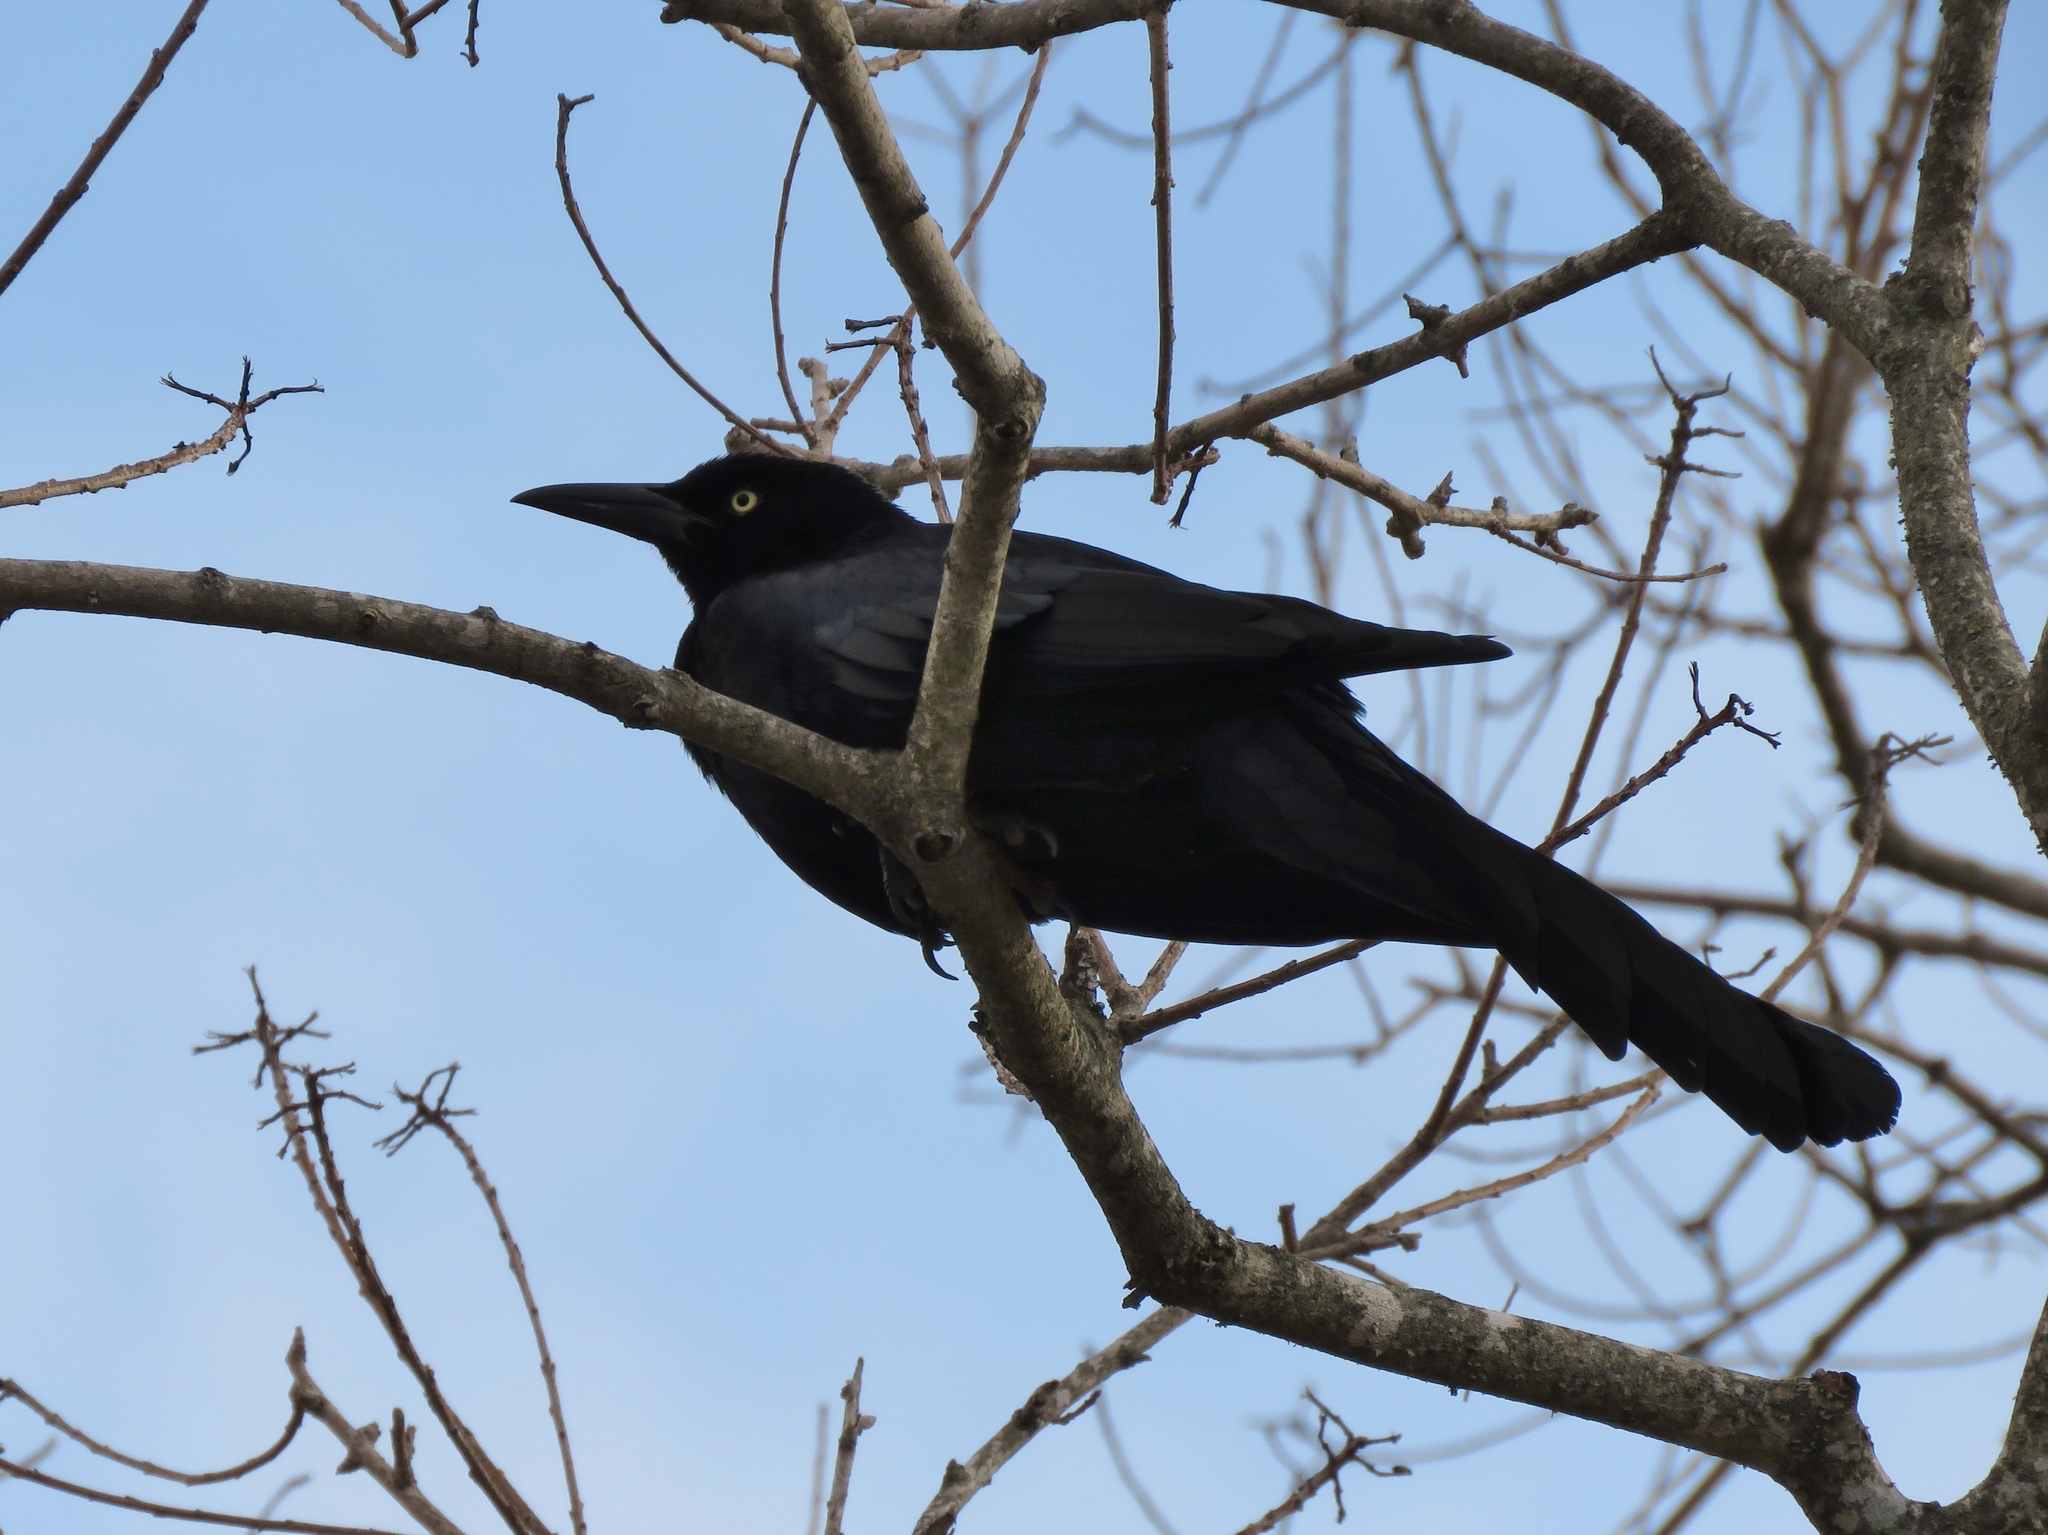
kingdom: Animalia
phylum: Chordata
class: Aves
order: Passeriformes
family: Icteridae
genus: Quiscalus
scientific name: Quiscalus mexicanus
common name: Great-tailed grackle
